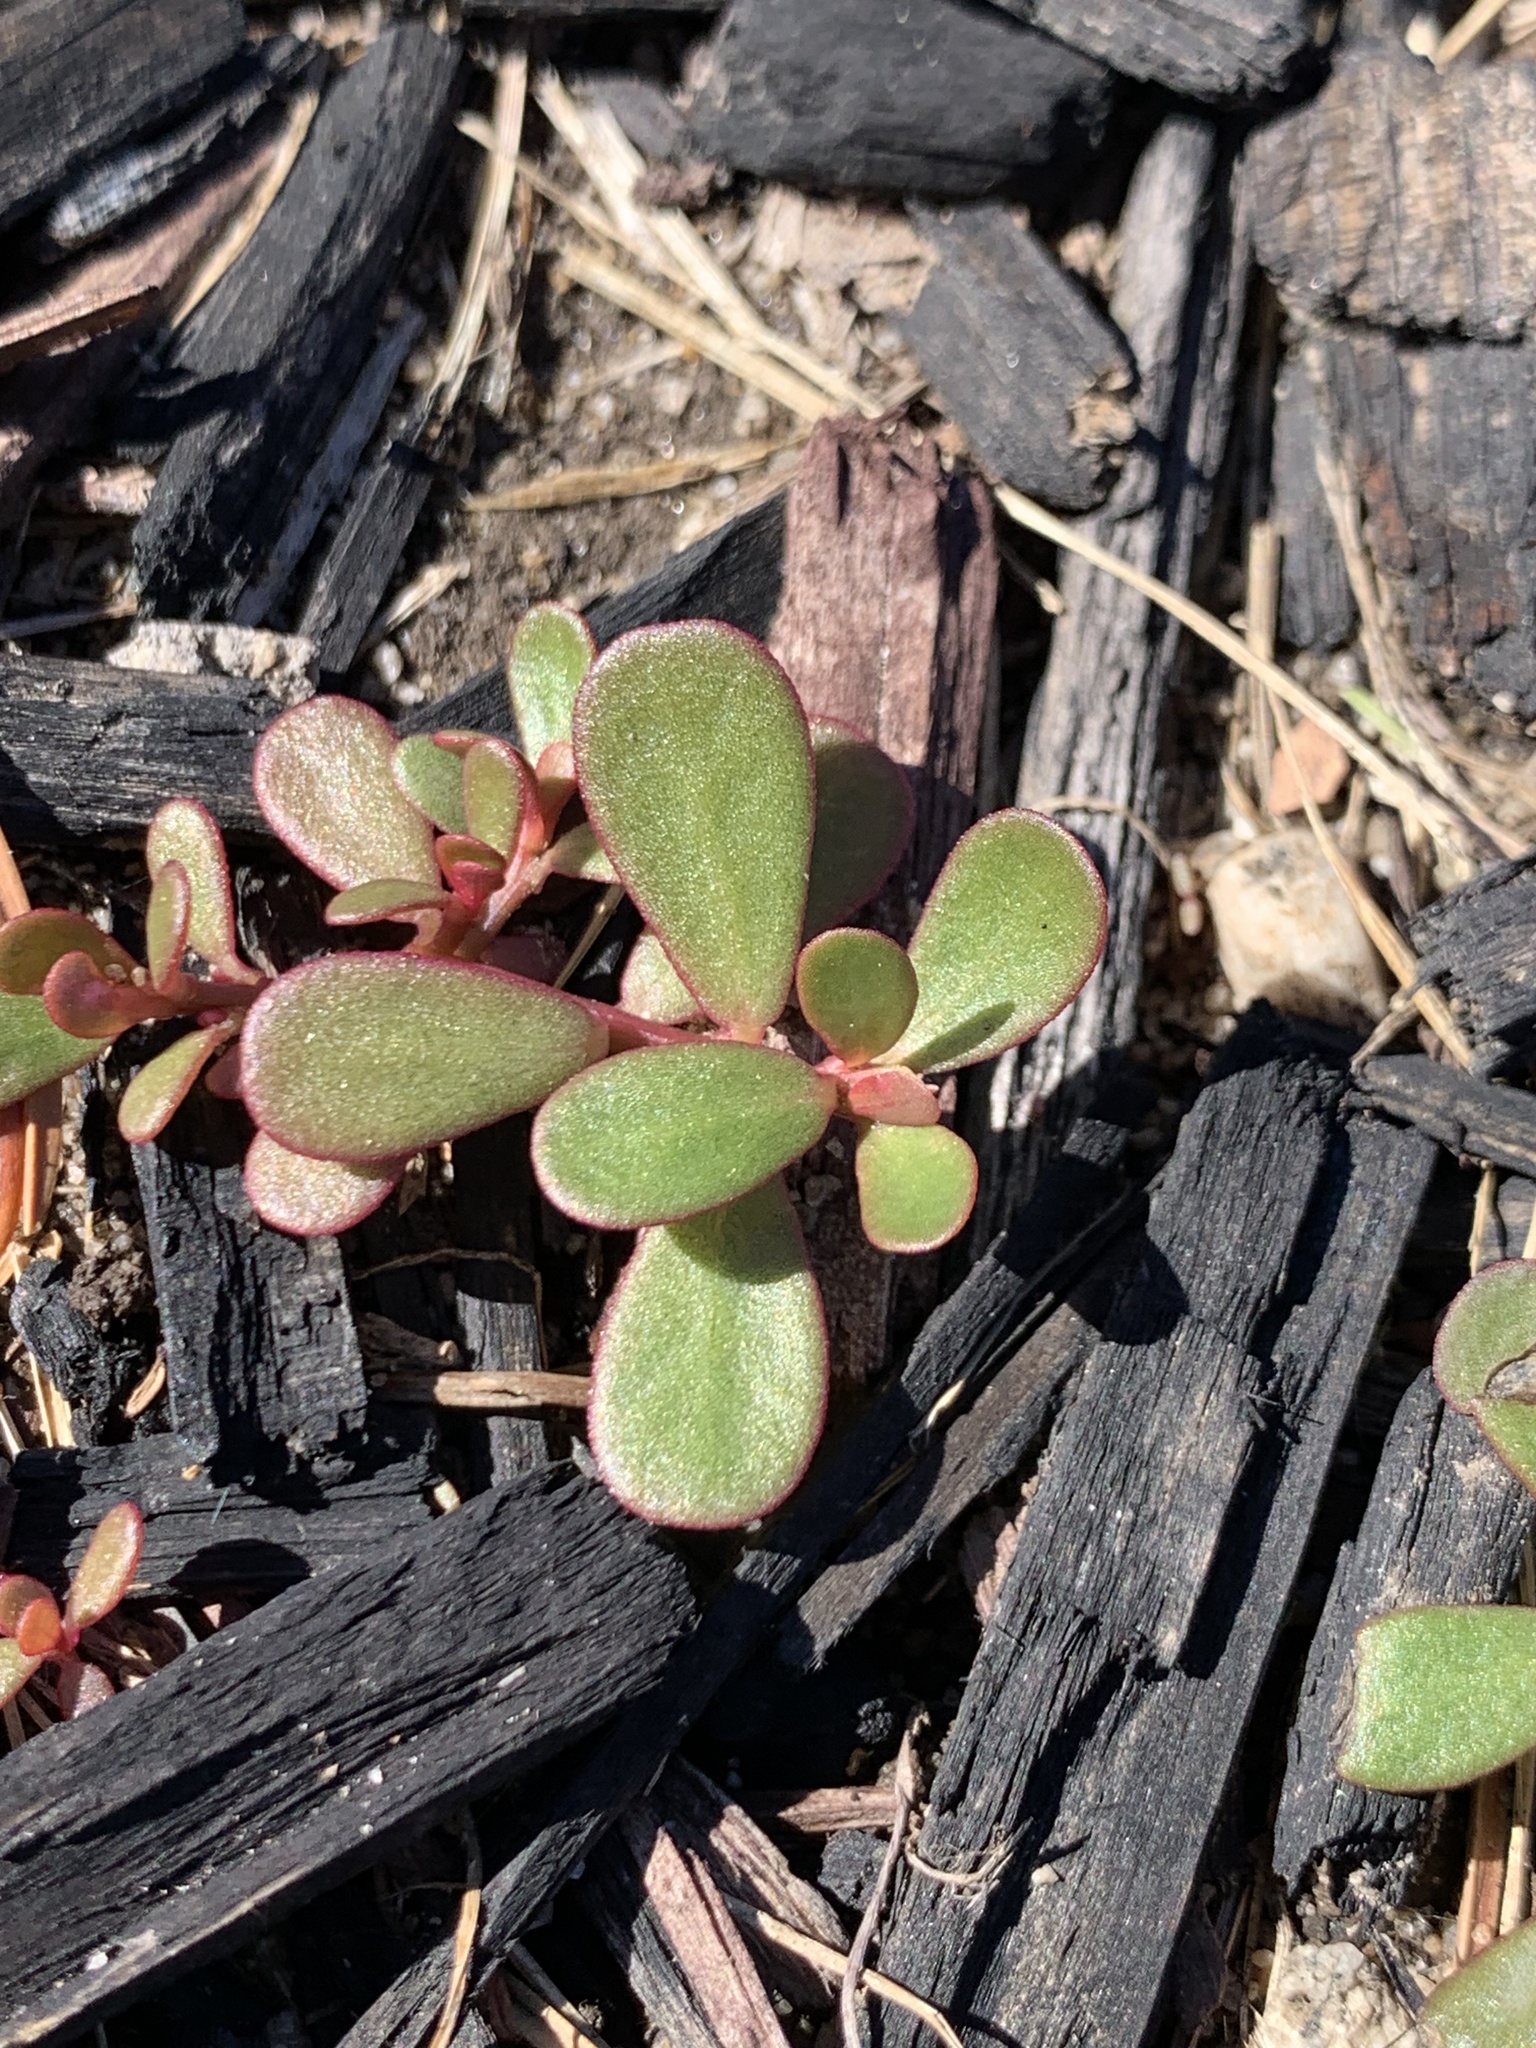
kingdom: Plantae
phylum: Tracheophyta
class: Magnoliopsida
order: Caryophyllales
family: Portulacaceae
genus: Portulaca
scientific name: Portulaca oleracea
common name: Common purslane
